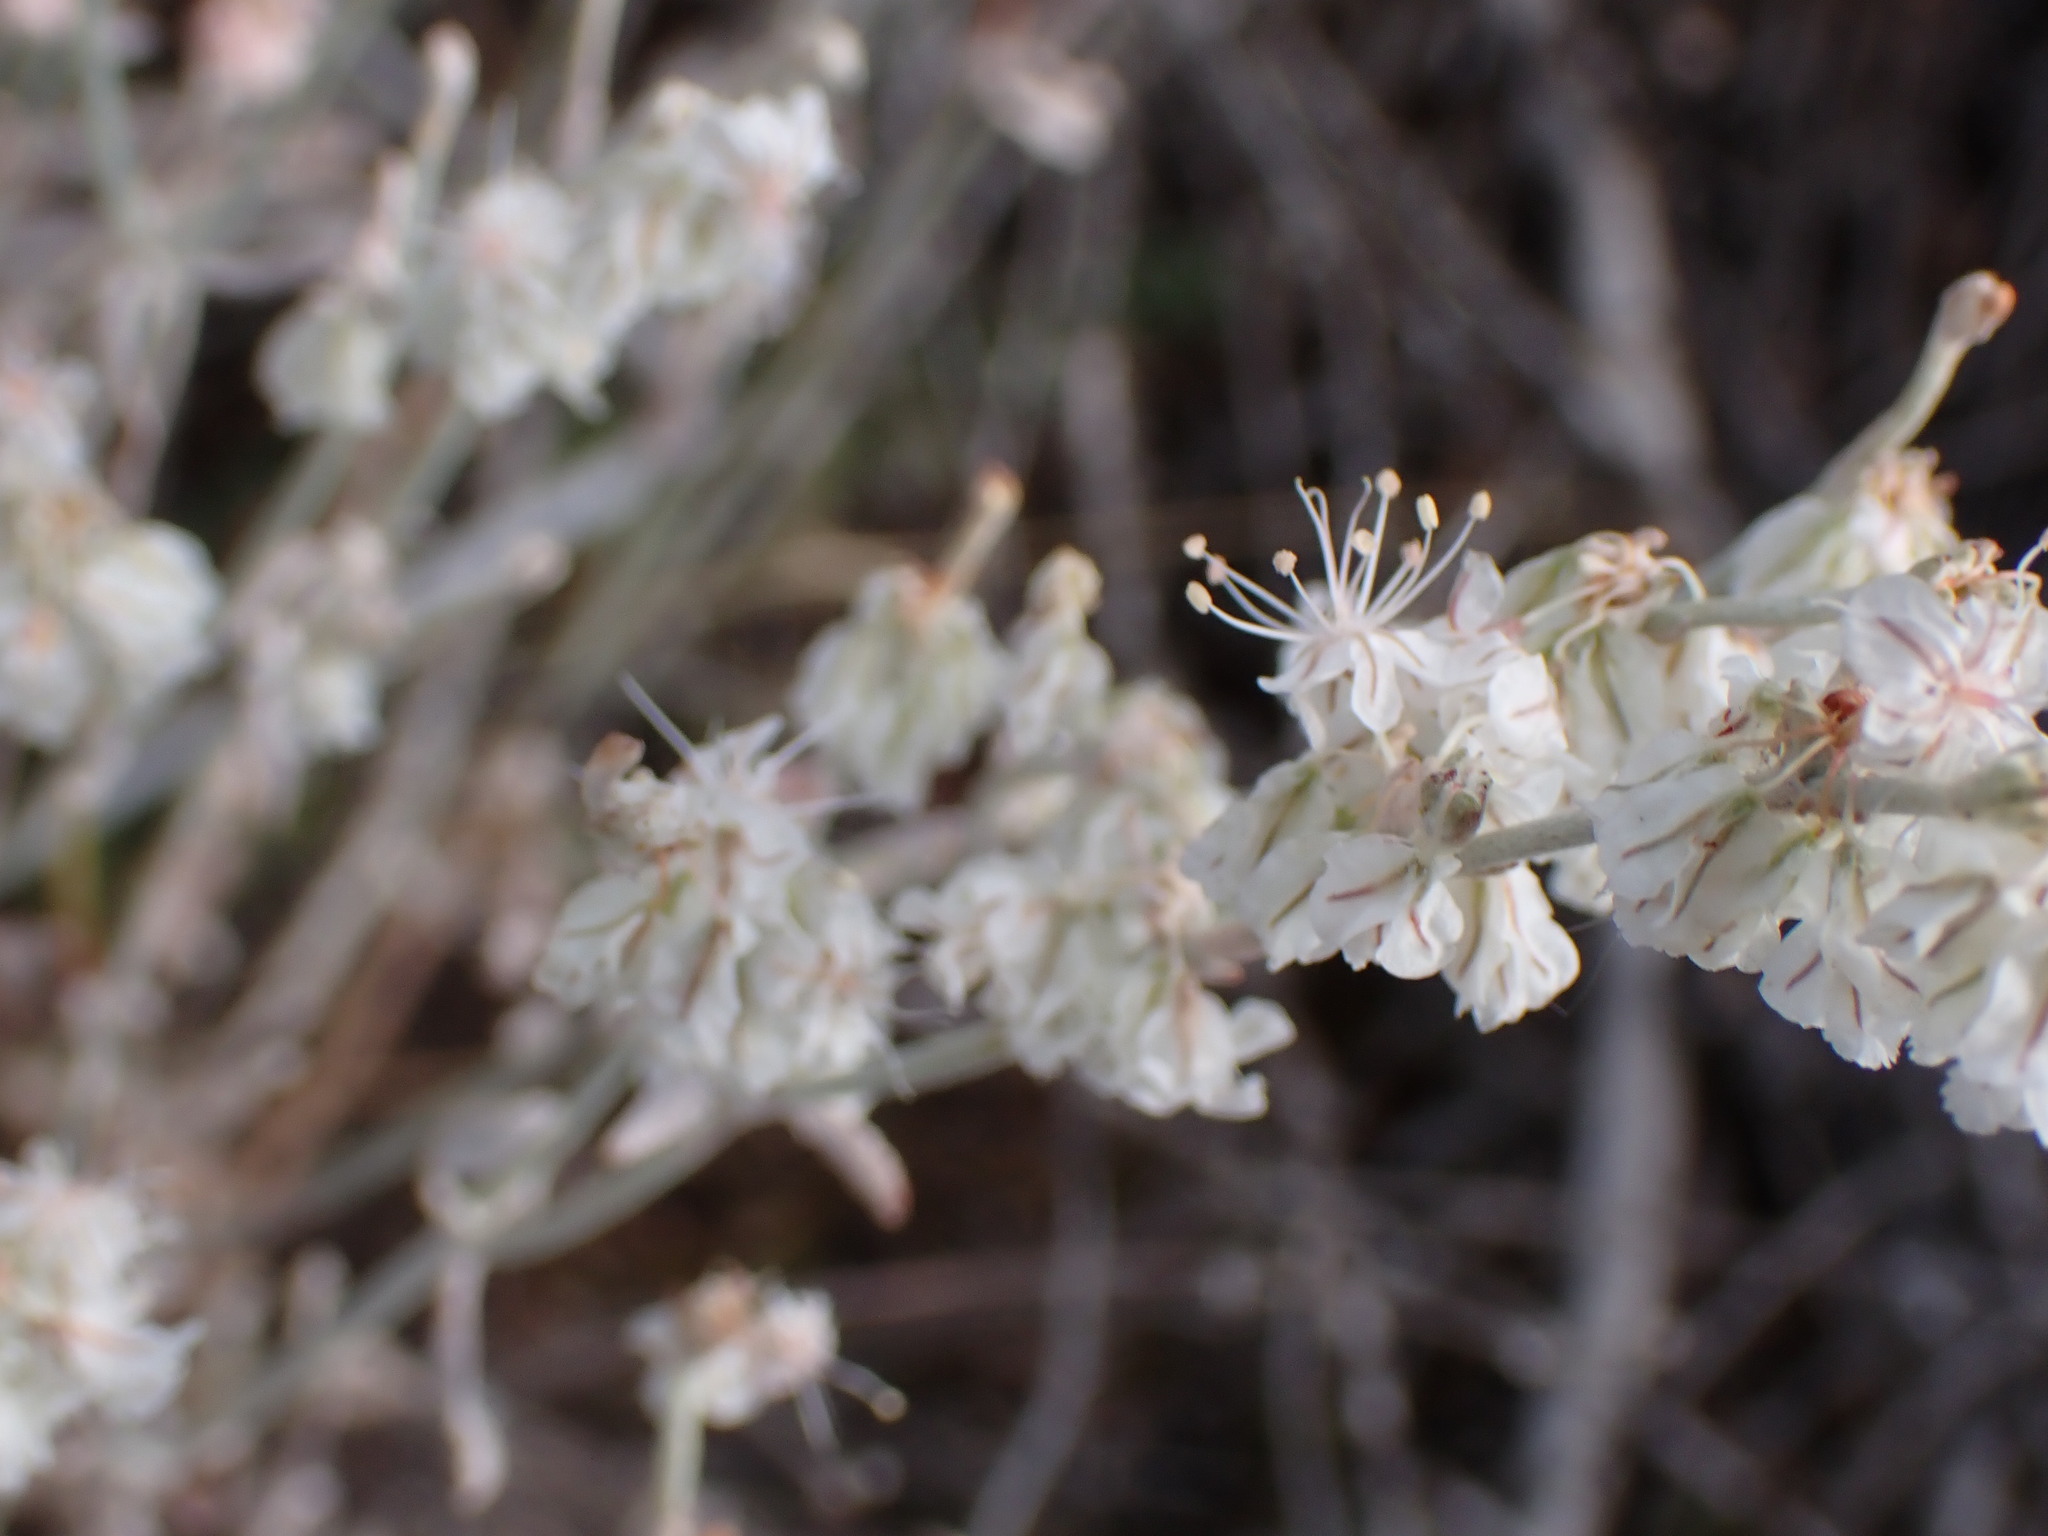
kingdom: Plantae
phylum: Tracheophyta
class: Magnoliopsida
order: Caryophyllales
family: Polygonaceae
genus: Eriogonum
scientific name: Eriogonum niveum
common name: Snow wild buckwheat
